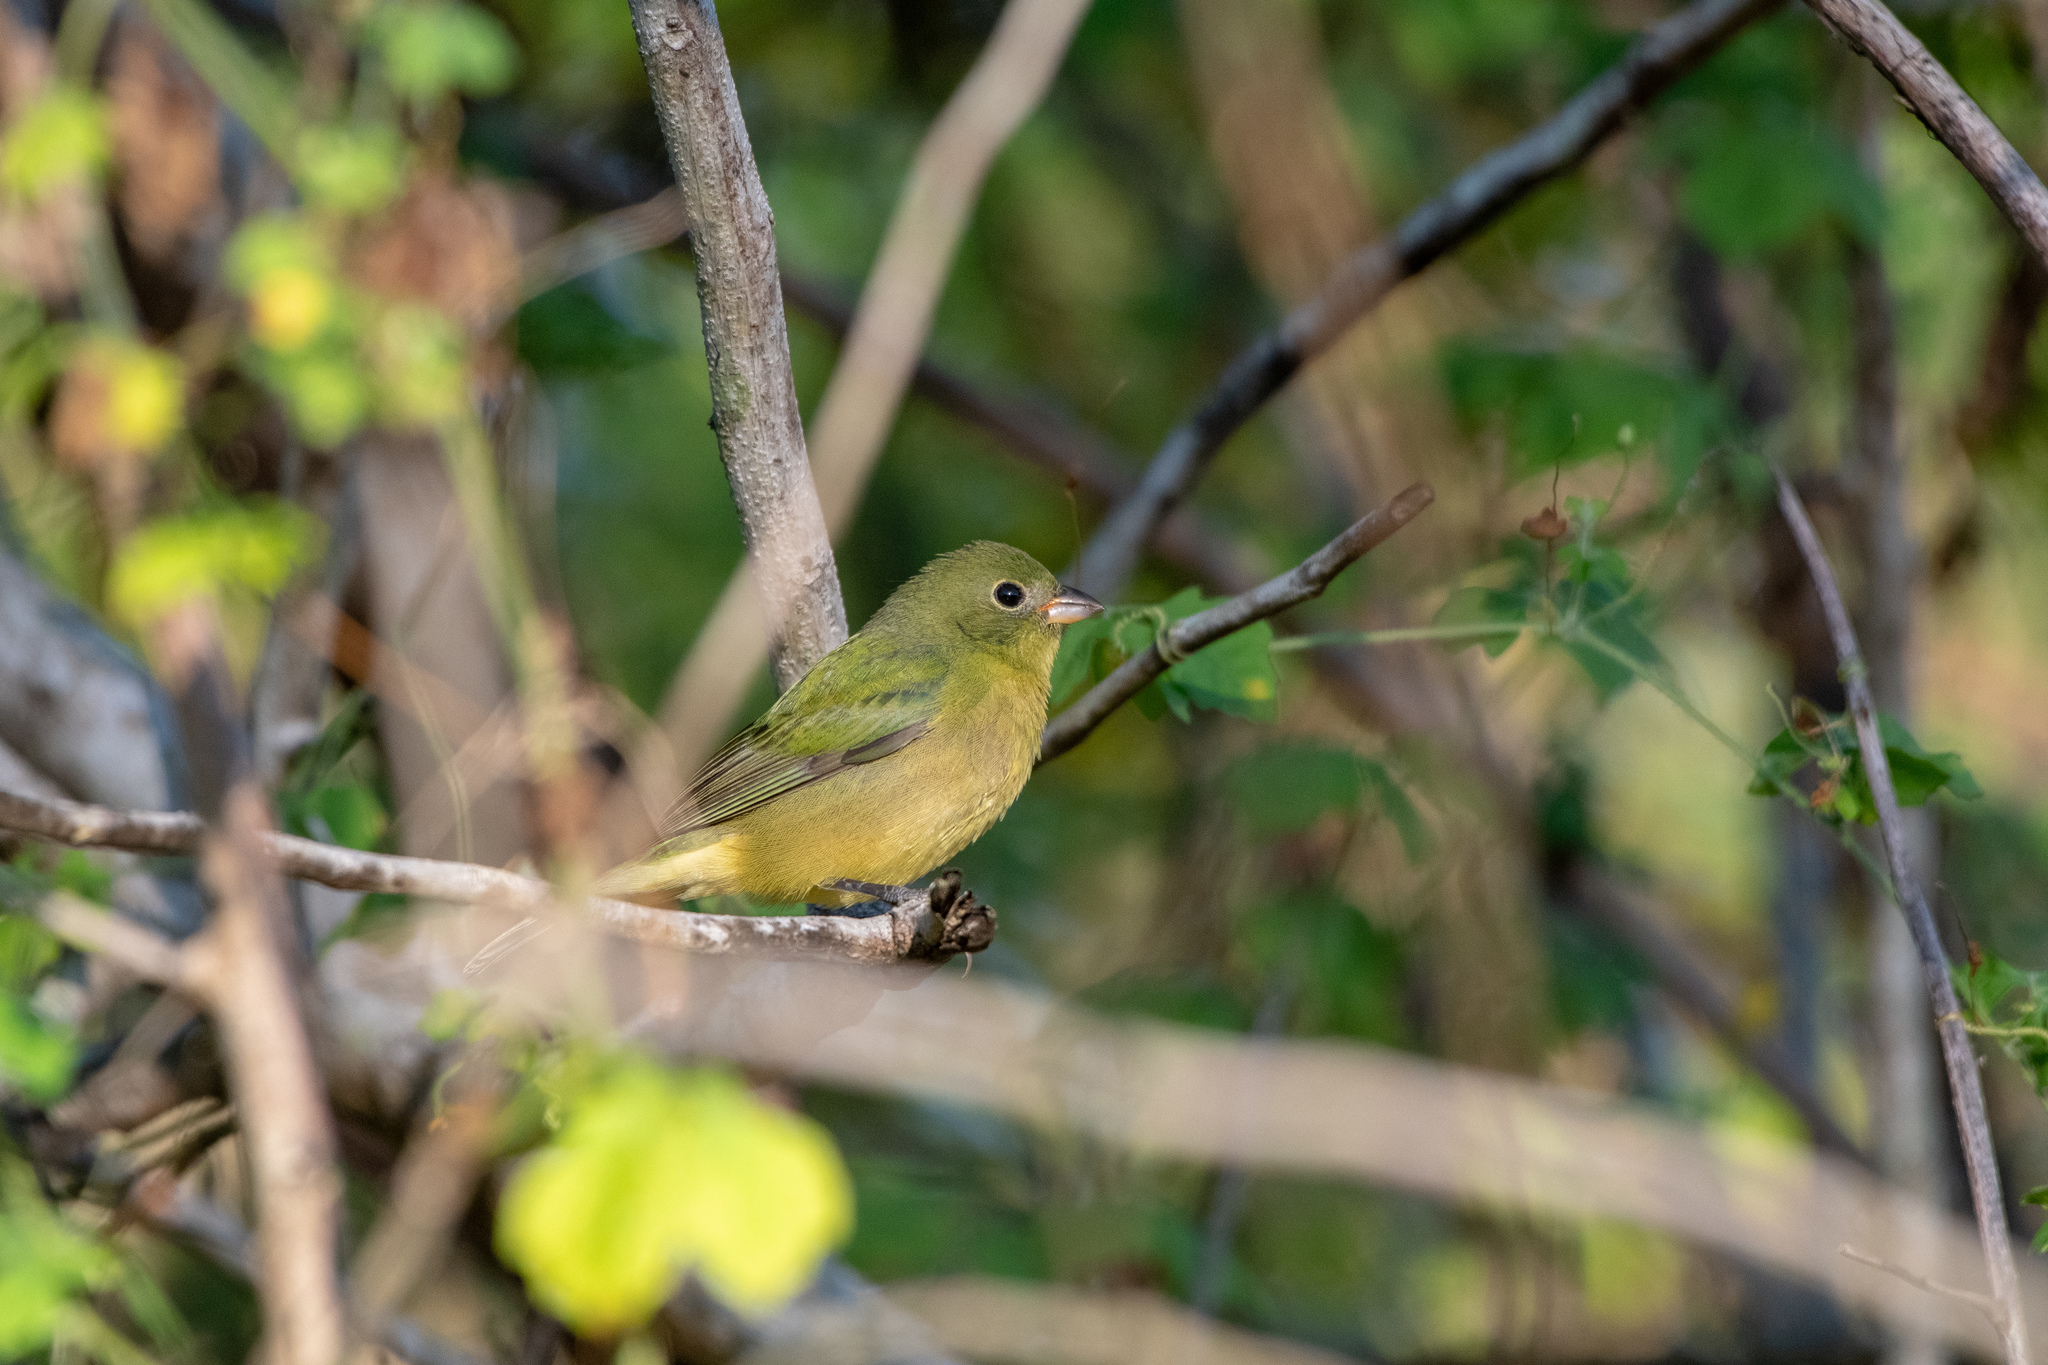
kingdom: Animalia
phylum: Chordata
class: Aves
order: Passeriformes
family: Cardinalidae
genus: Passerina
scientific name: Passerina ciris
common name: Painted bunting
